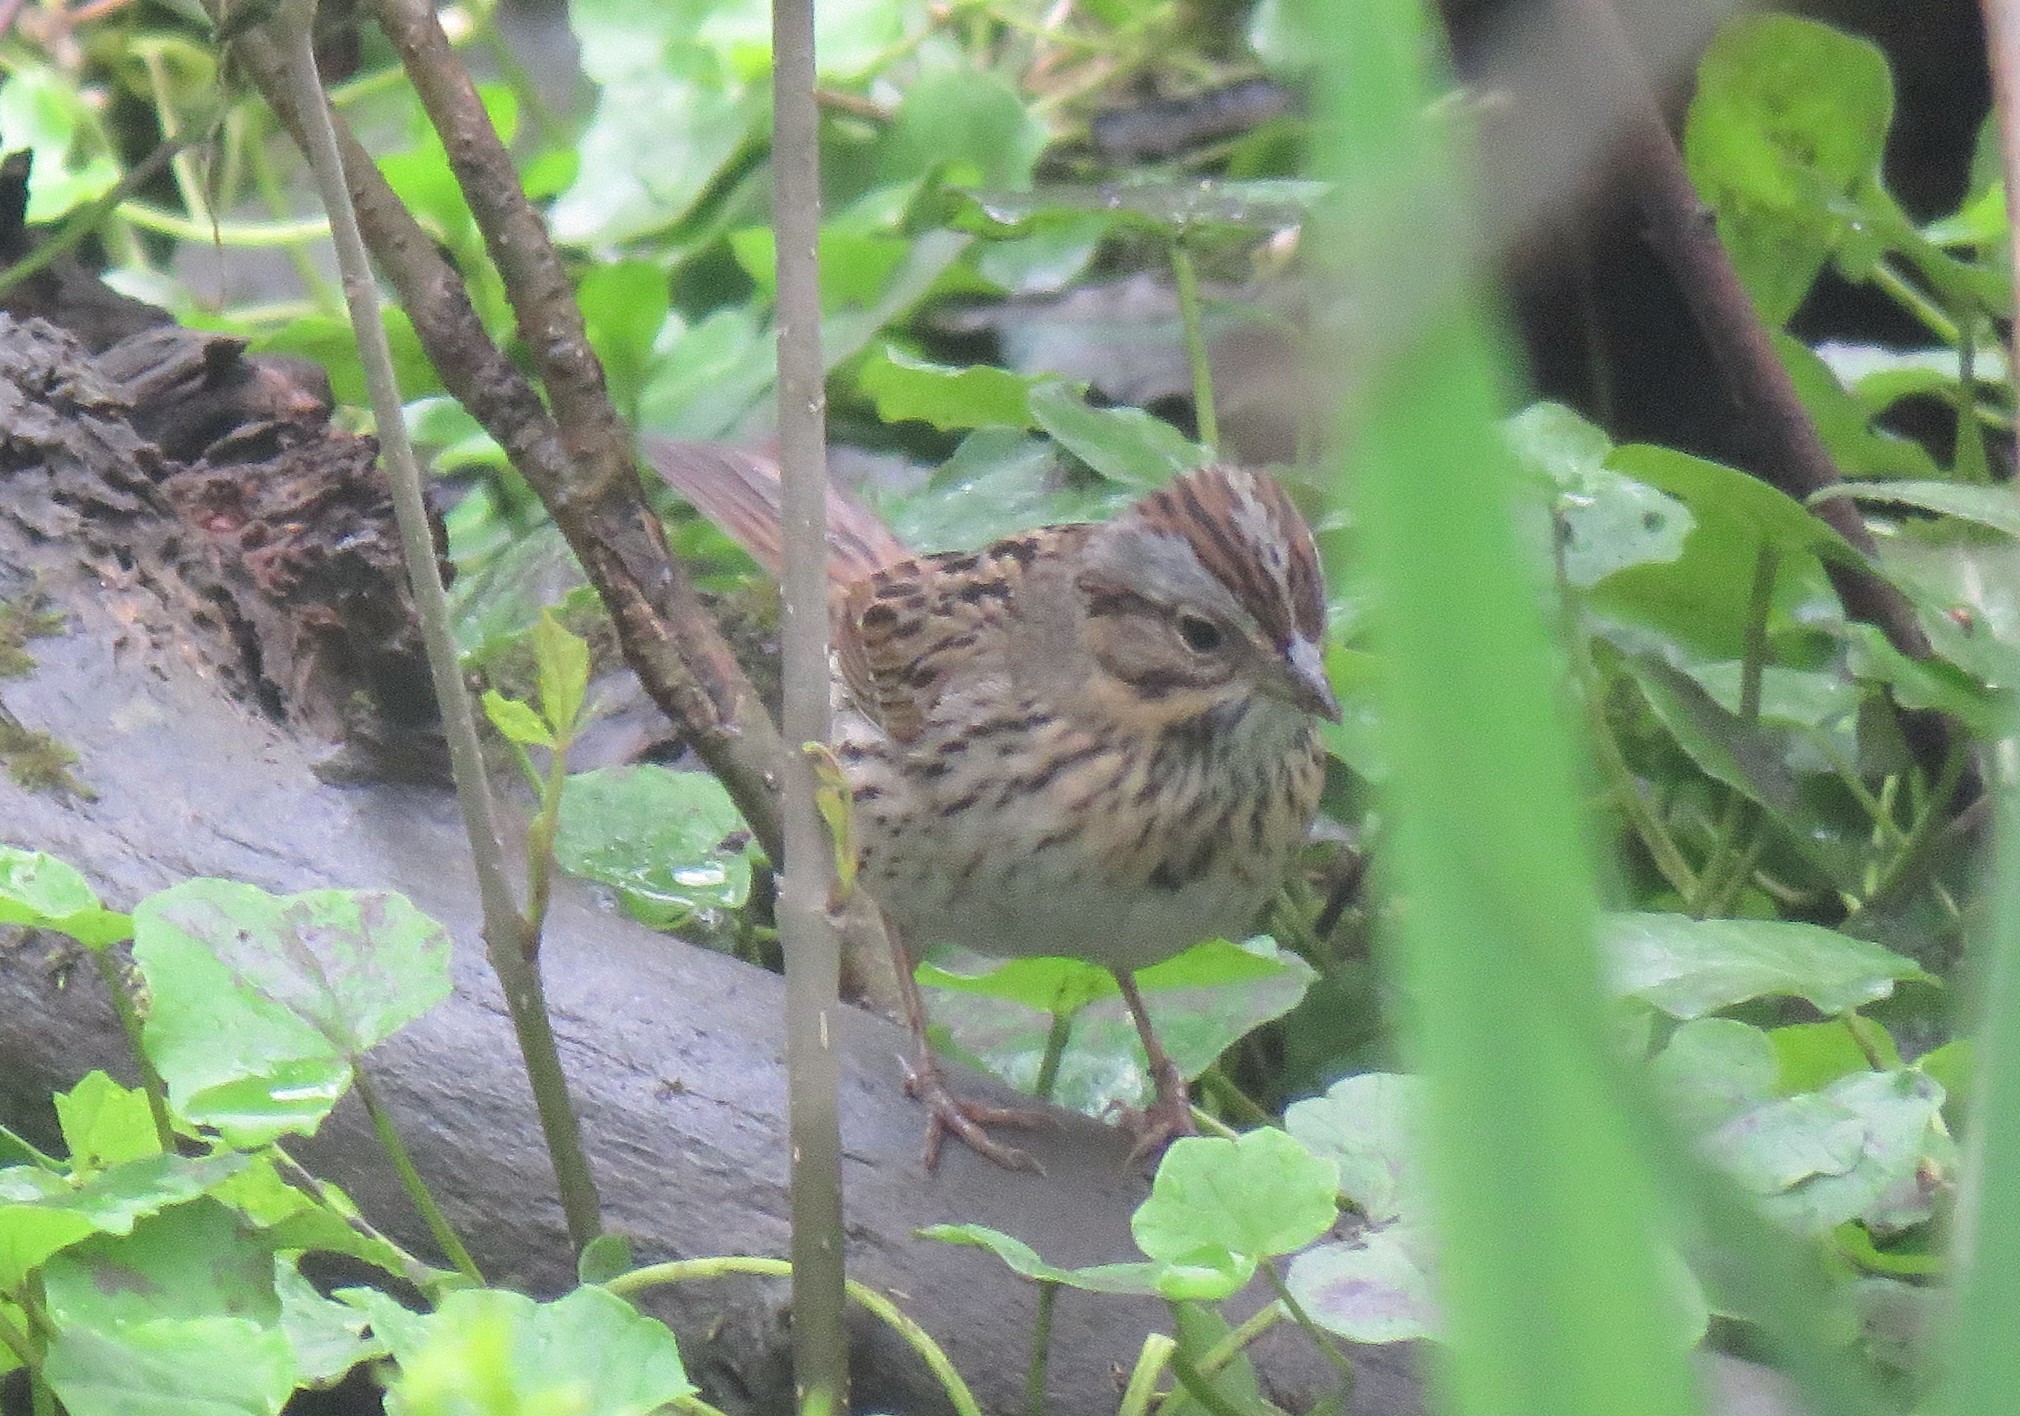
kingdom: Animalia
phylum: Chordata
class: Aves
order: Passeriformes
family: Passerellidae
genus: Melospiza
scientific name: Melospiza lincolnii
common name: Lincoln's sparrow
